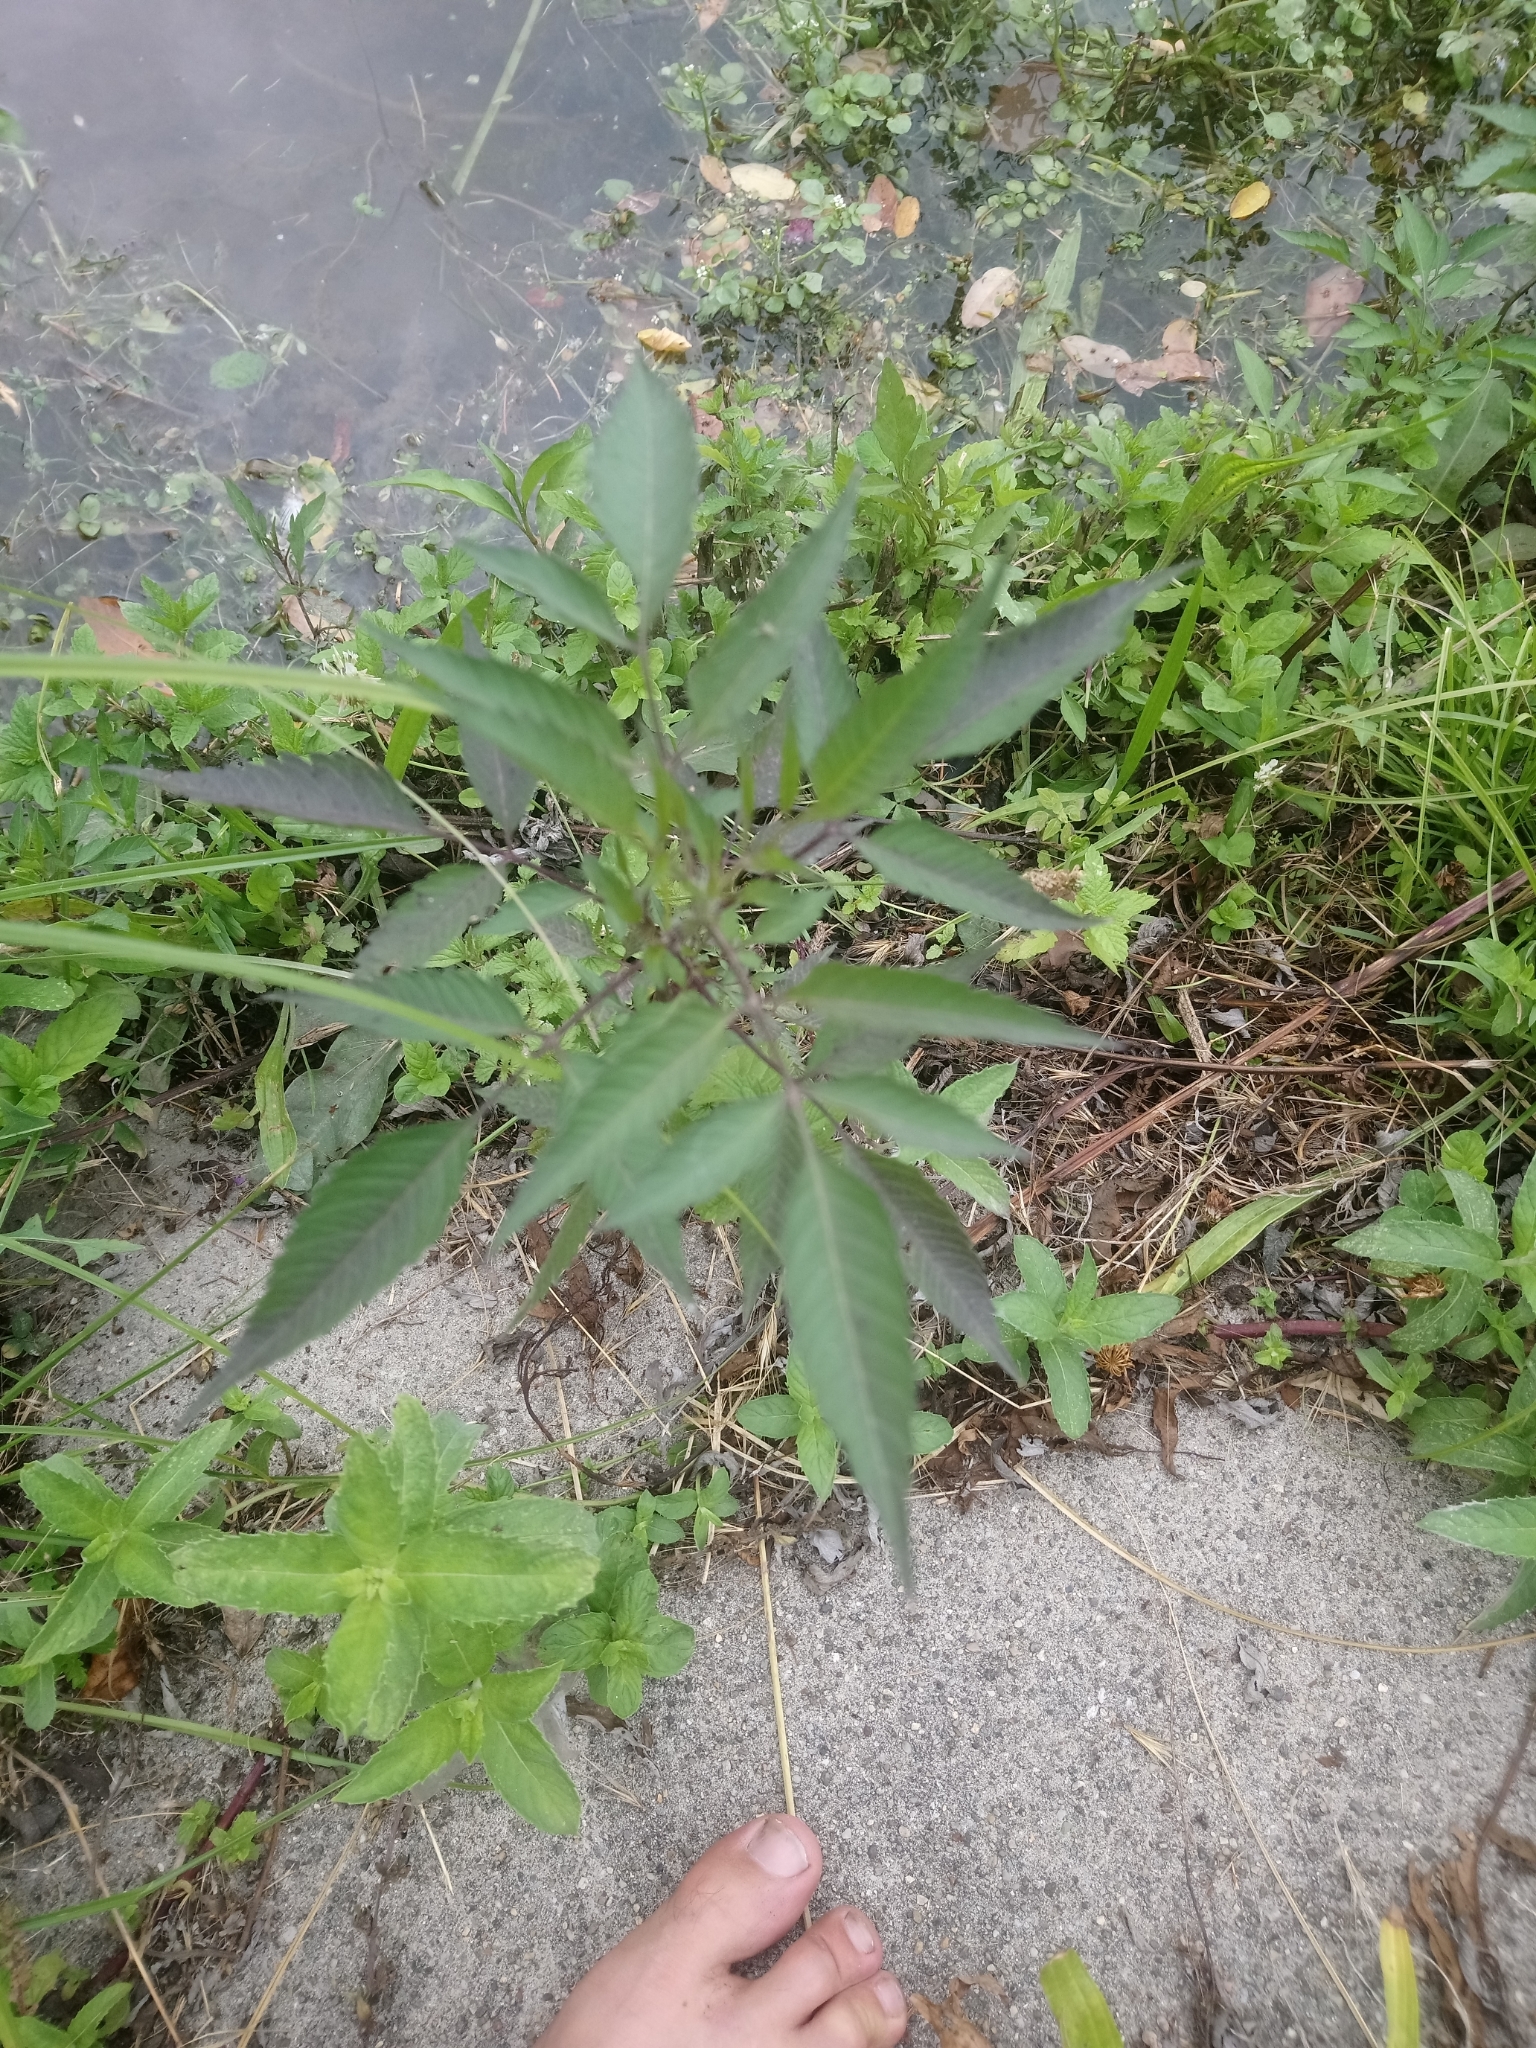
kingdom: Plantae
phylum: Tracheophyta
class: Magnoliopsida
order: Asterales
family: Asteraceae
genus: Bidens
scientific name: Bidens frondosa
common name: Beggarticks
